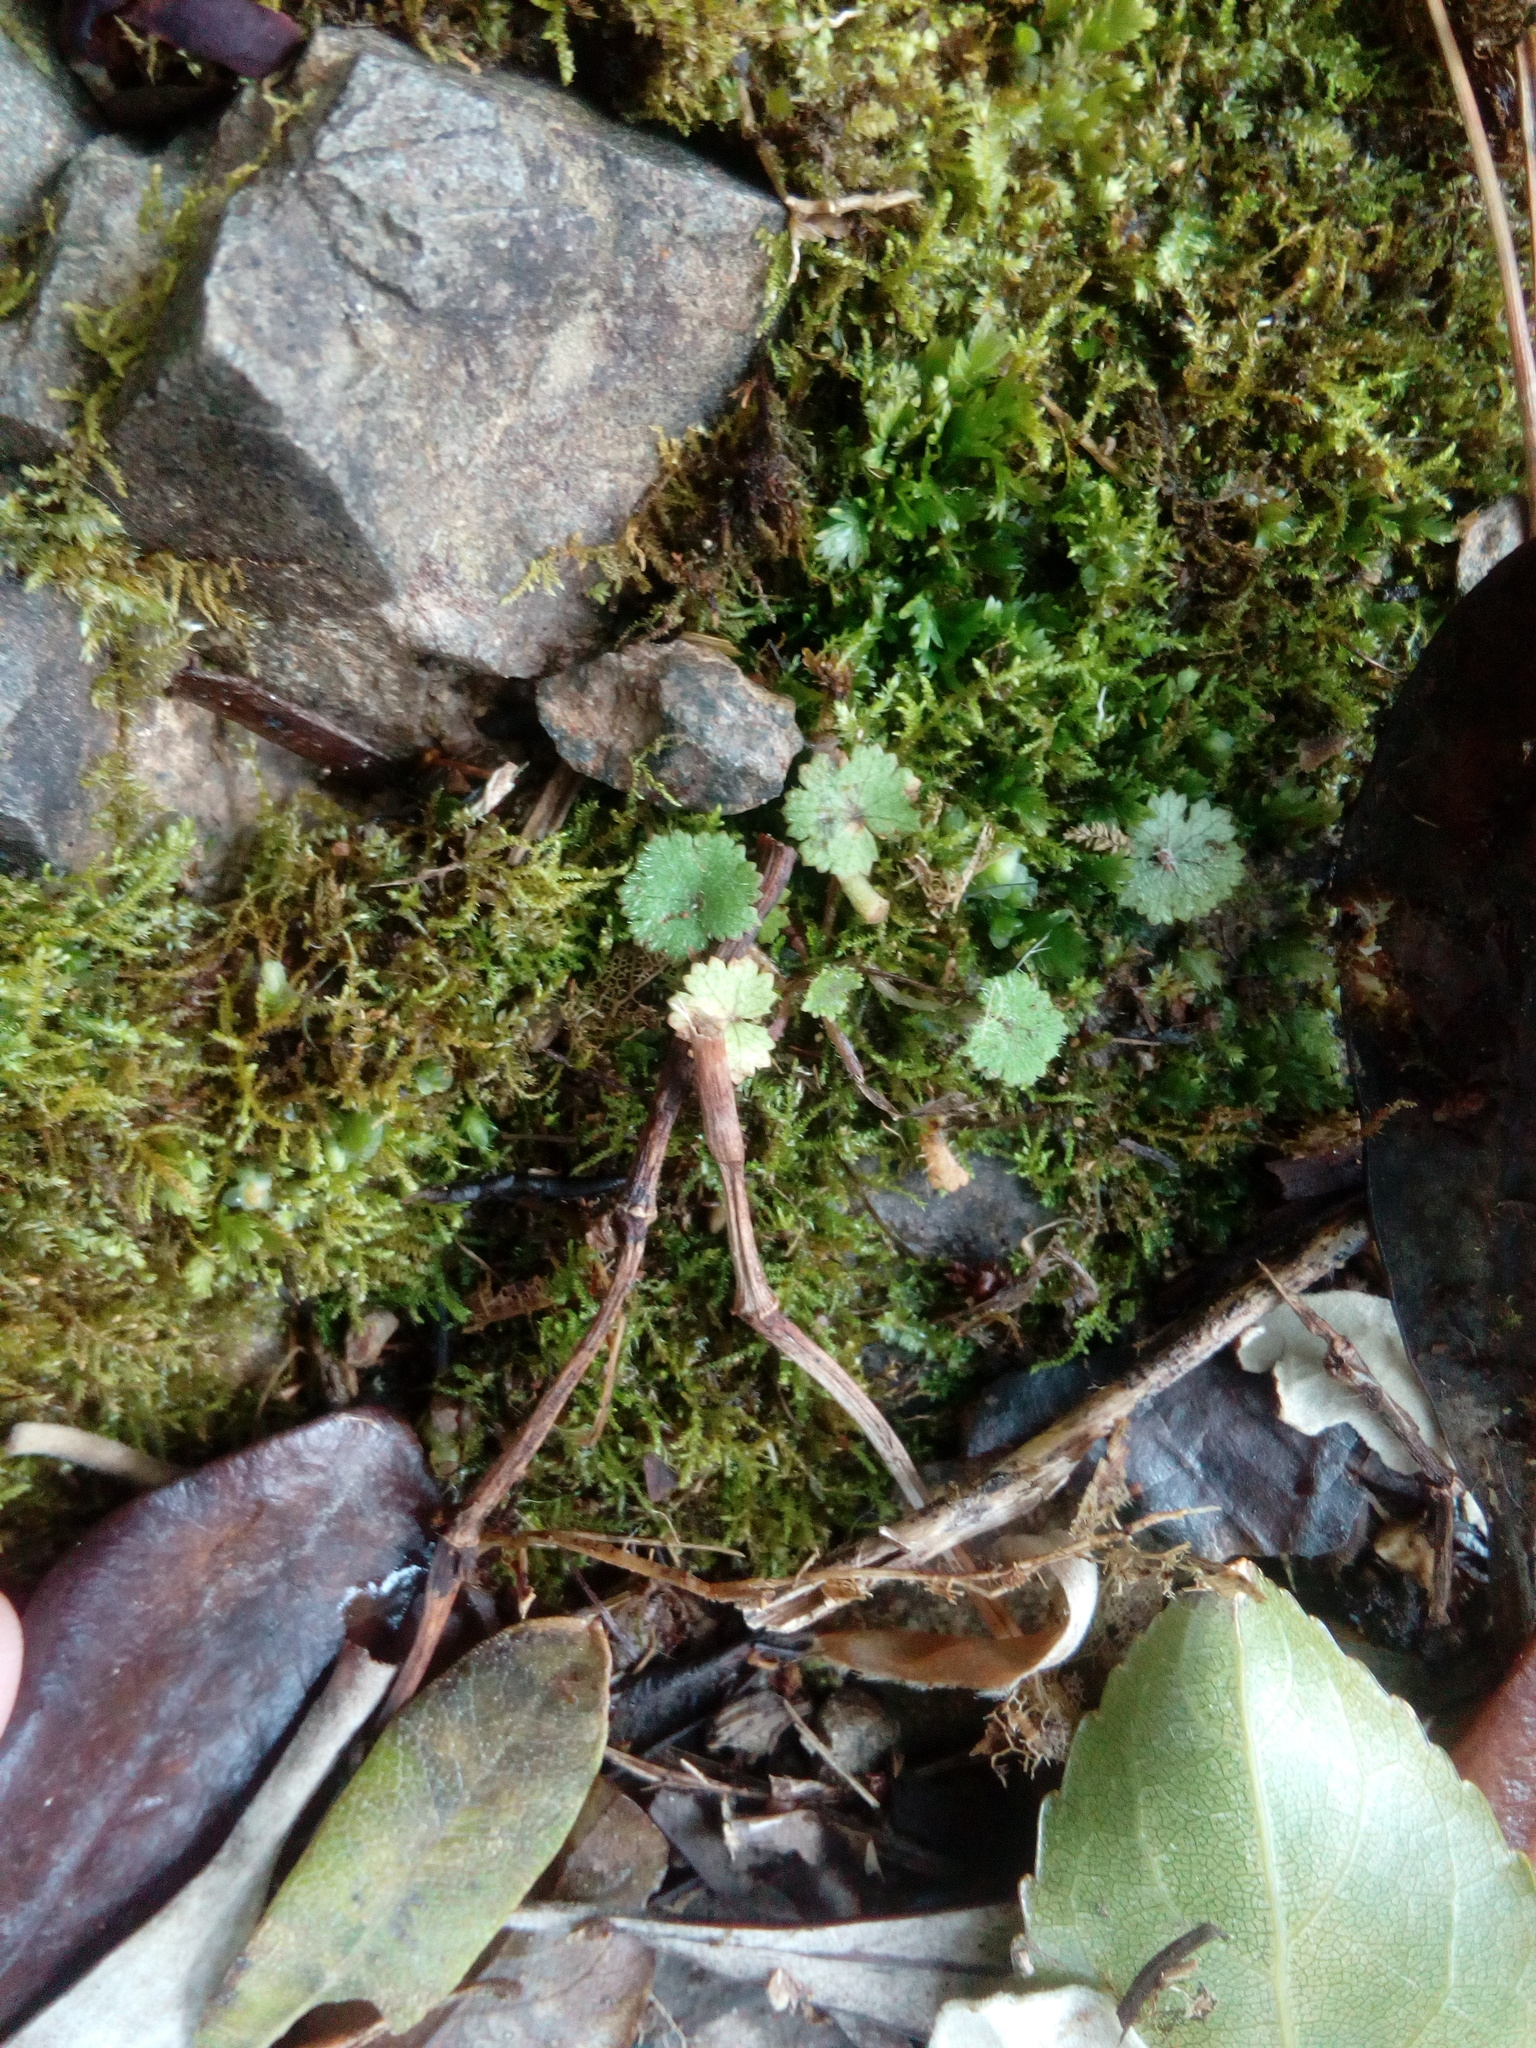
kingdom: Plantae
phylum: Tracheophyta
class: Magnoliopsida
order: Apiales
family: Araliaceae
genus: Hydrocotyle
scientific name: Hydrocotyle moschata
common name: Hairy pennywort
